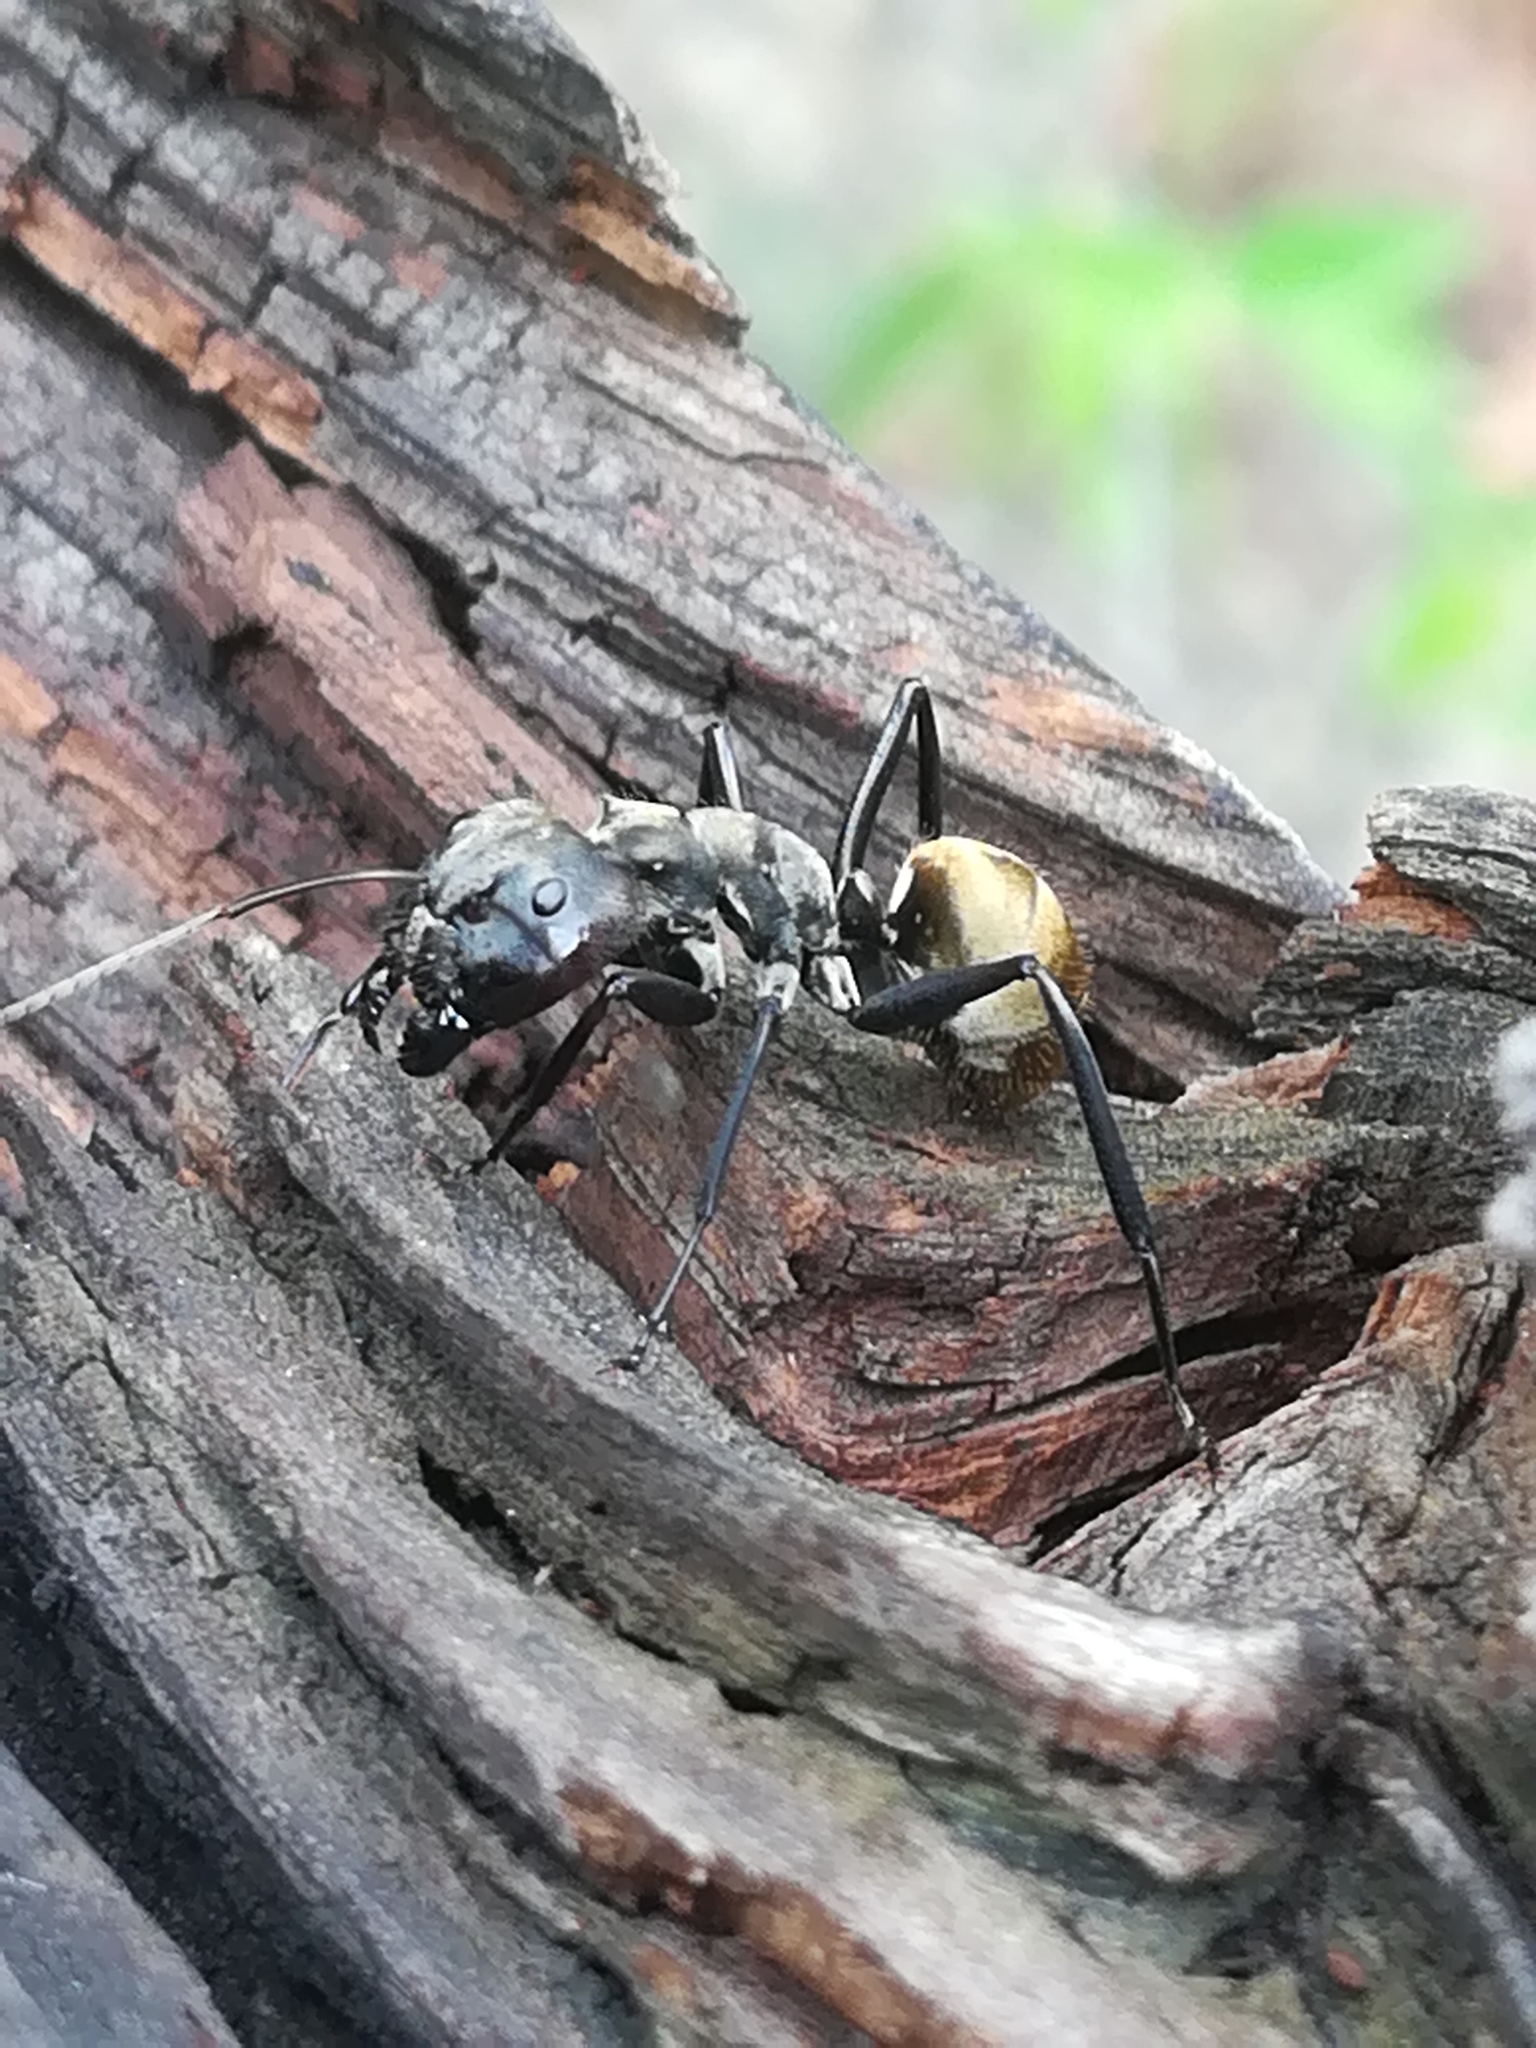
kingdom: Animalia
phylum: Arthropoda
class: Insecta
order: Hymenoptera
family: Formicidae
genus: Camponotus
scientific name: Camponotus sericeiventris
